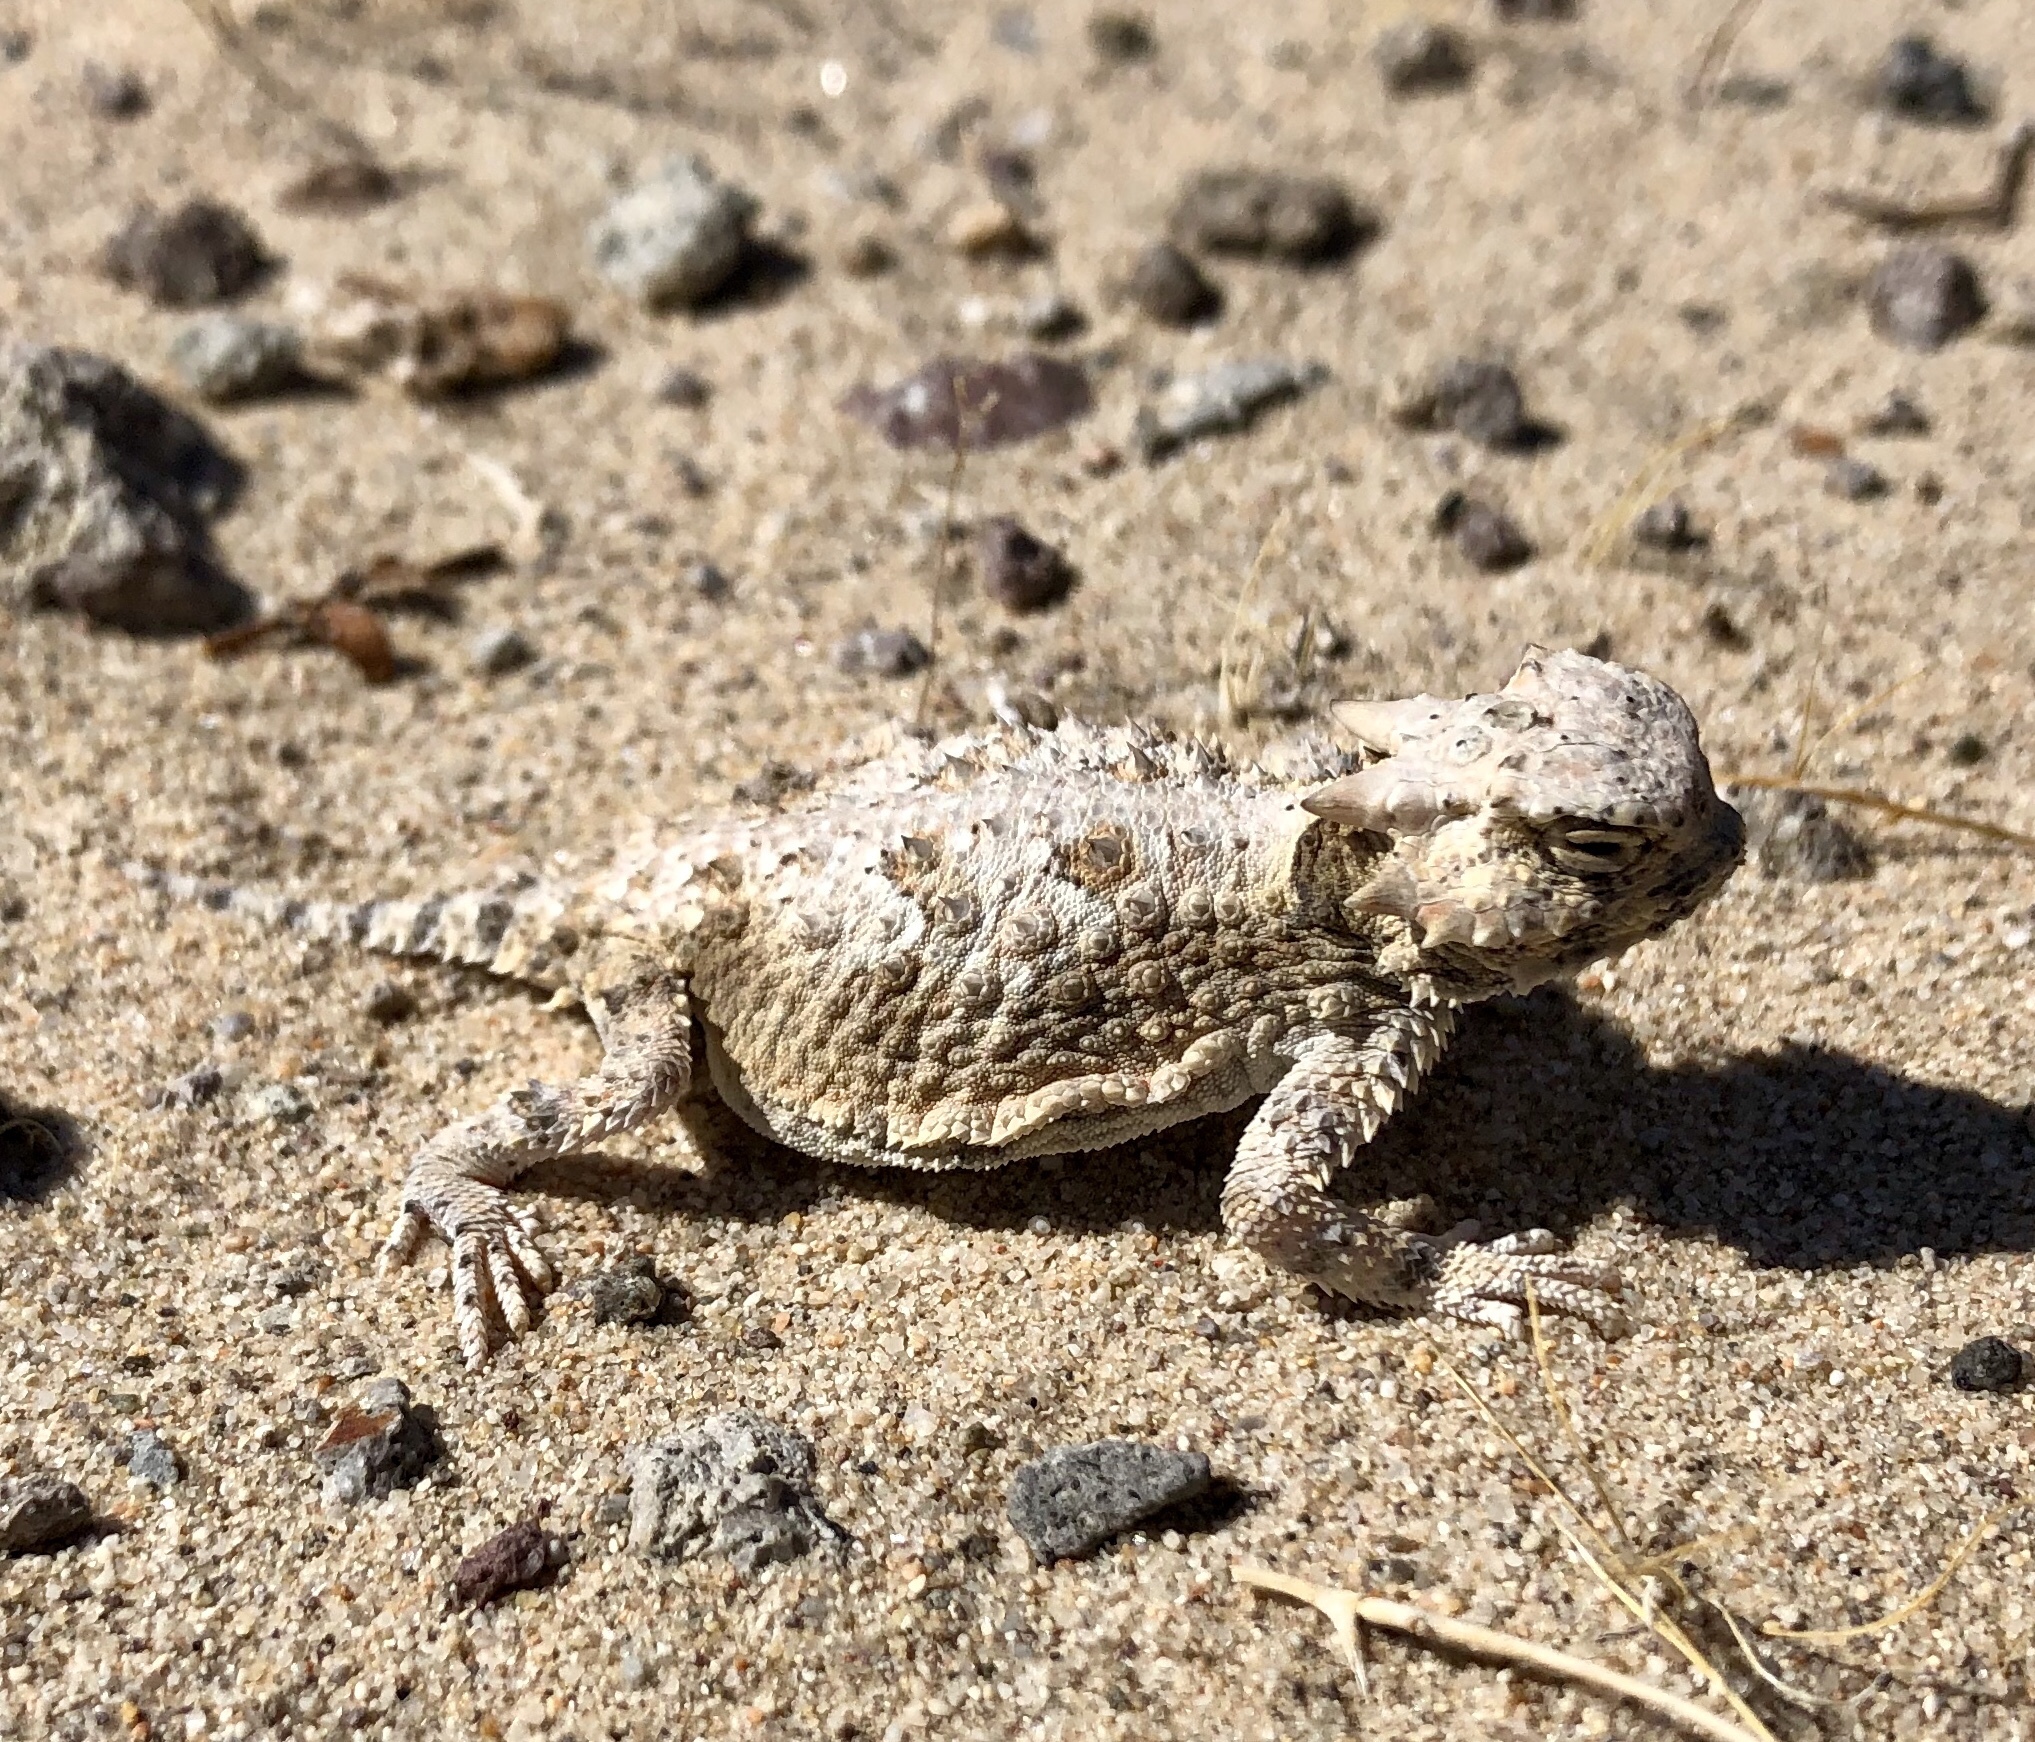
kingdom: Animalia
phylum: Chordata
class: Squamata
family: Phrynosomatidae
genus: Phrynosoma
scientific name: Phrynosoma platyrhinos
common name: Desert horned lizard
